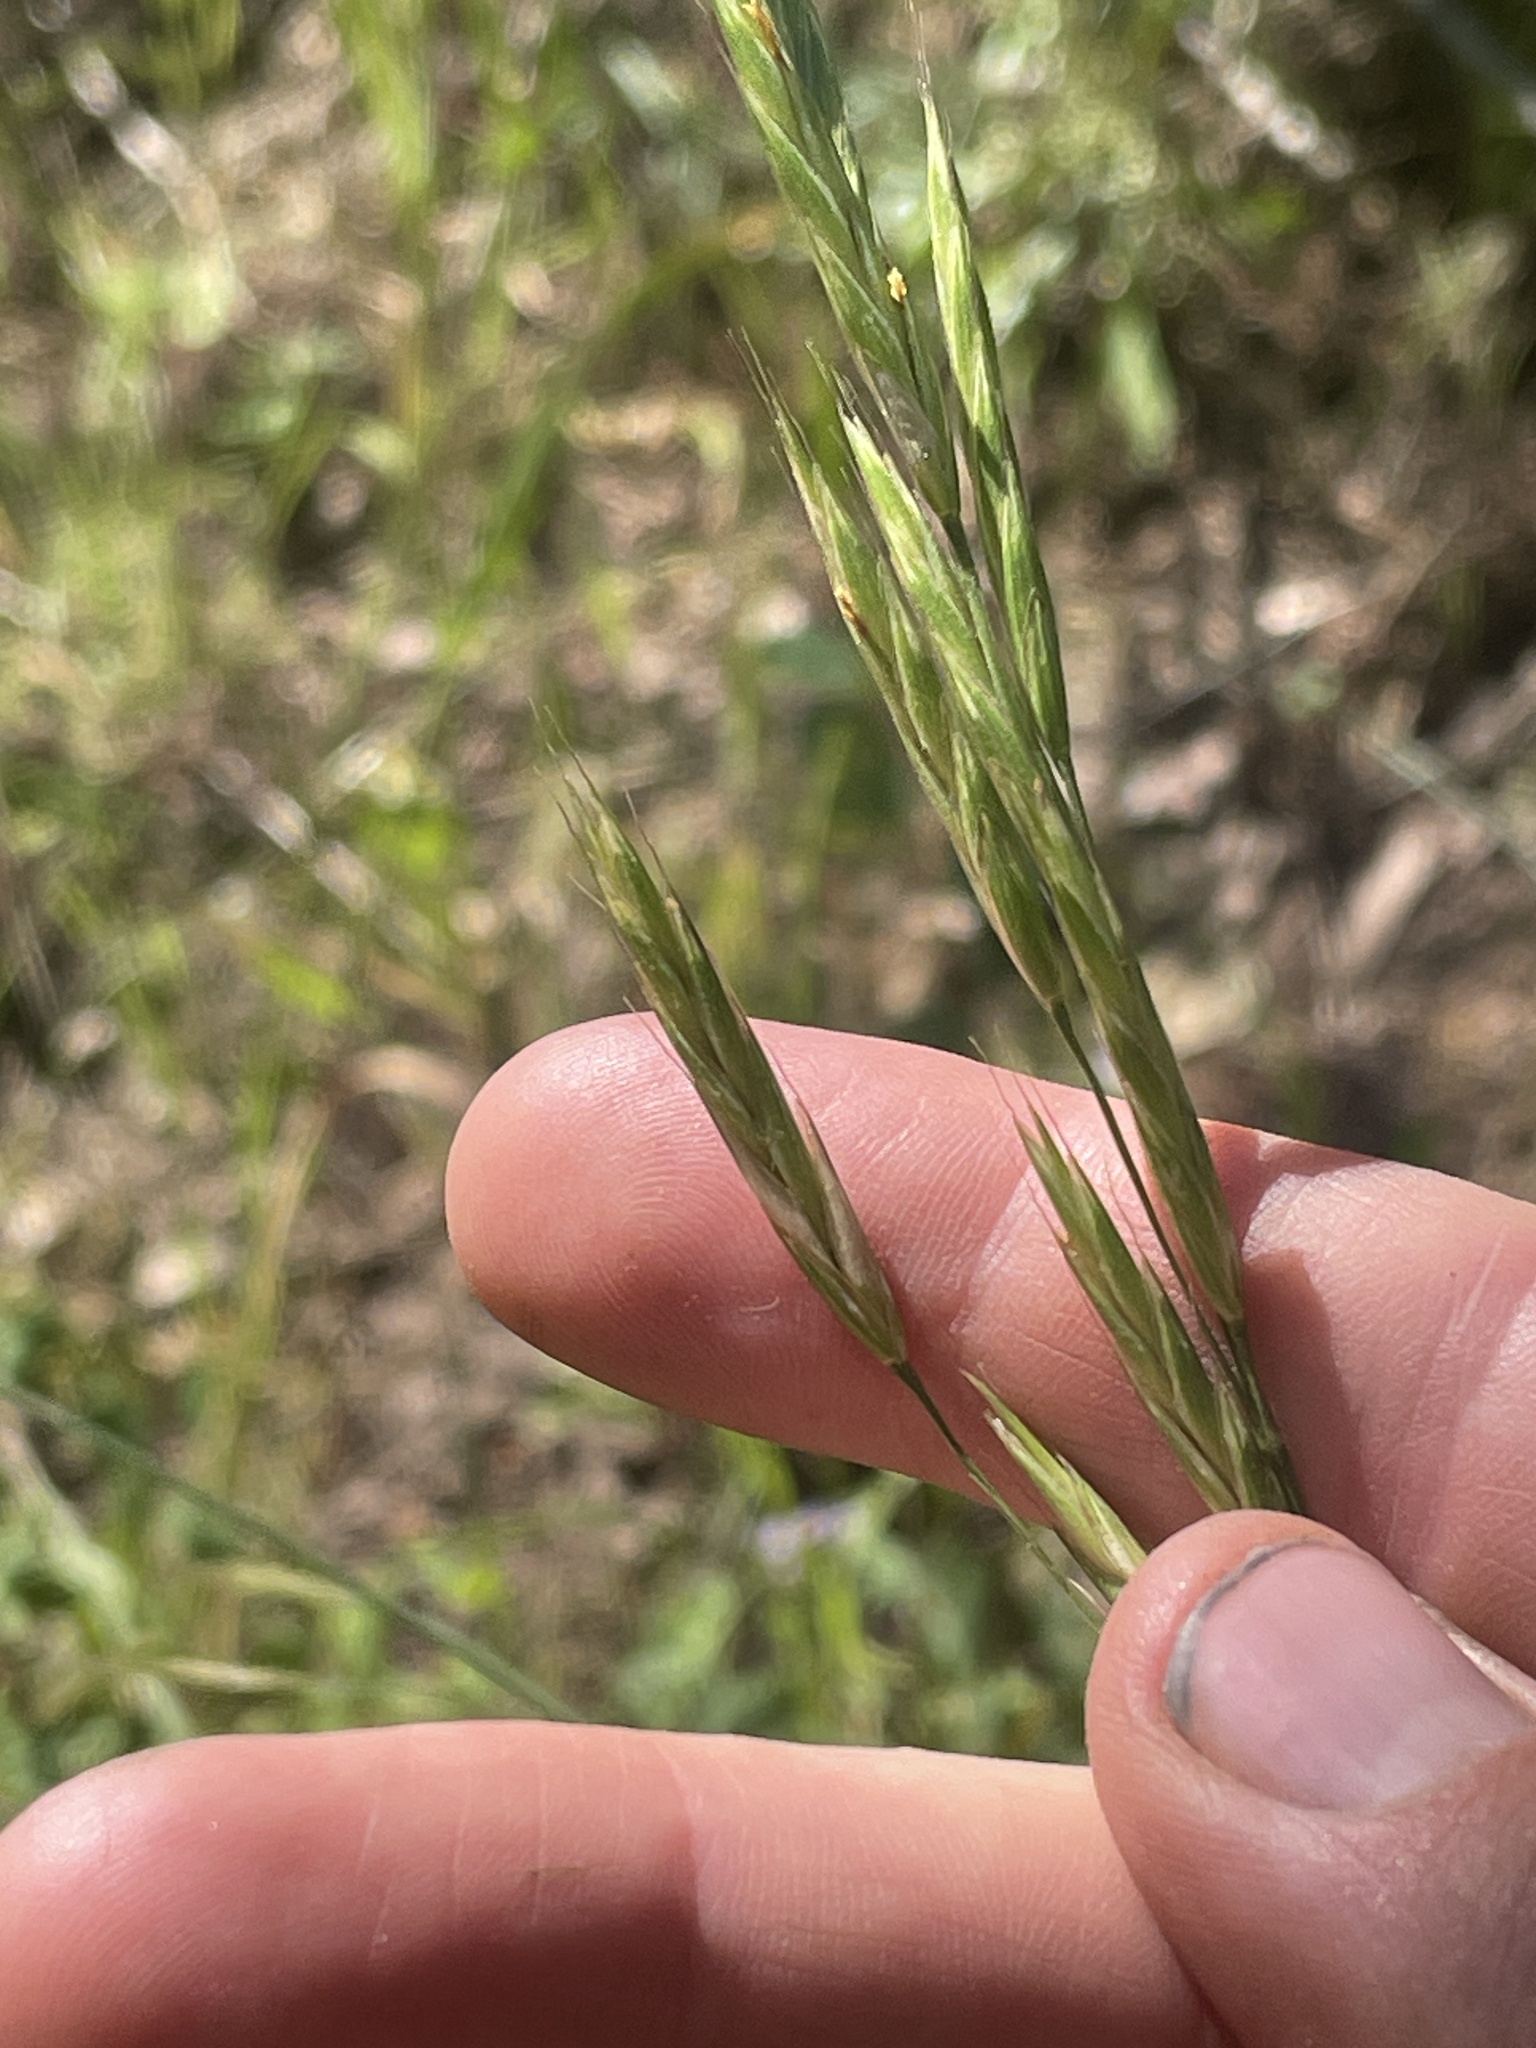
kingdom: Plantae
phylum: Tracheophyta
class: Liliopsida
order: Poales
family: Poaceae
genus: Bromus
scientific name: Bromus marginatus
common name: Western brome
